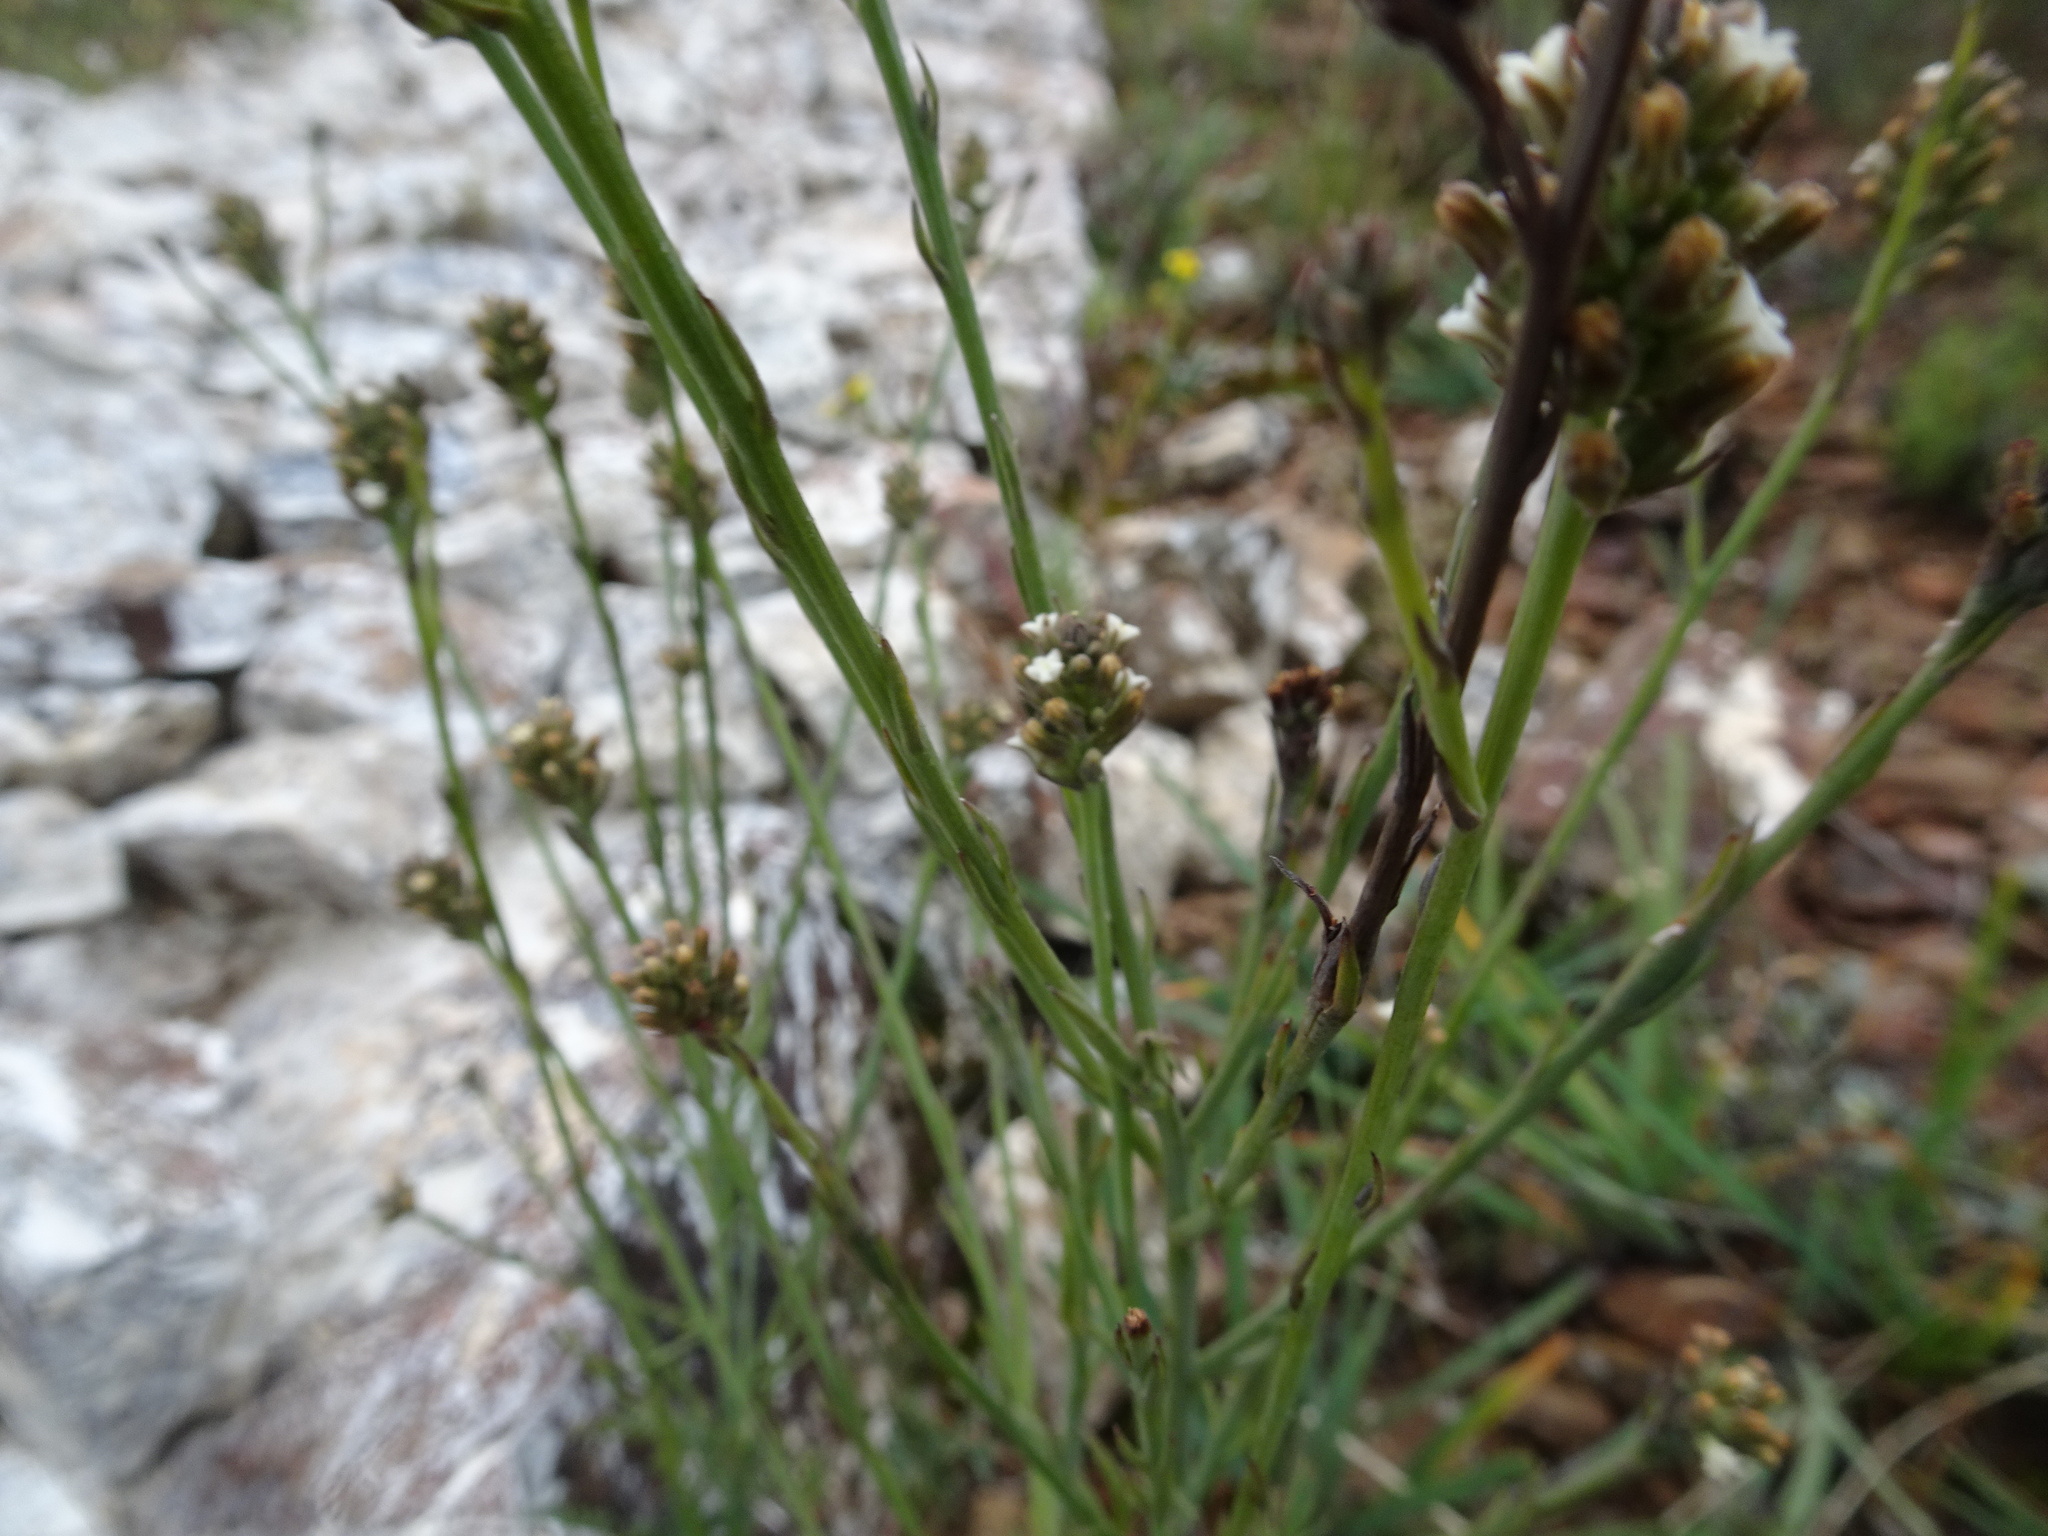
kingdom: Plantae
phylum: Tracheophyta
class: Magnoliopsida
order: Santalales
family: Thesiaceae
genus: Thesium
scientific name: Thesium aggregatum
